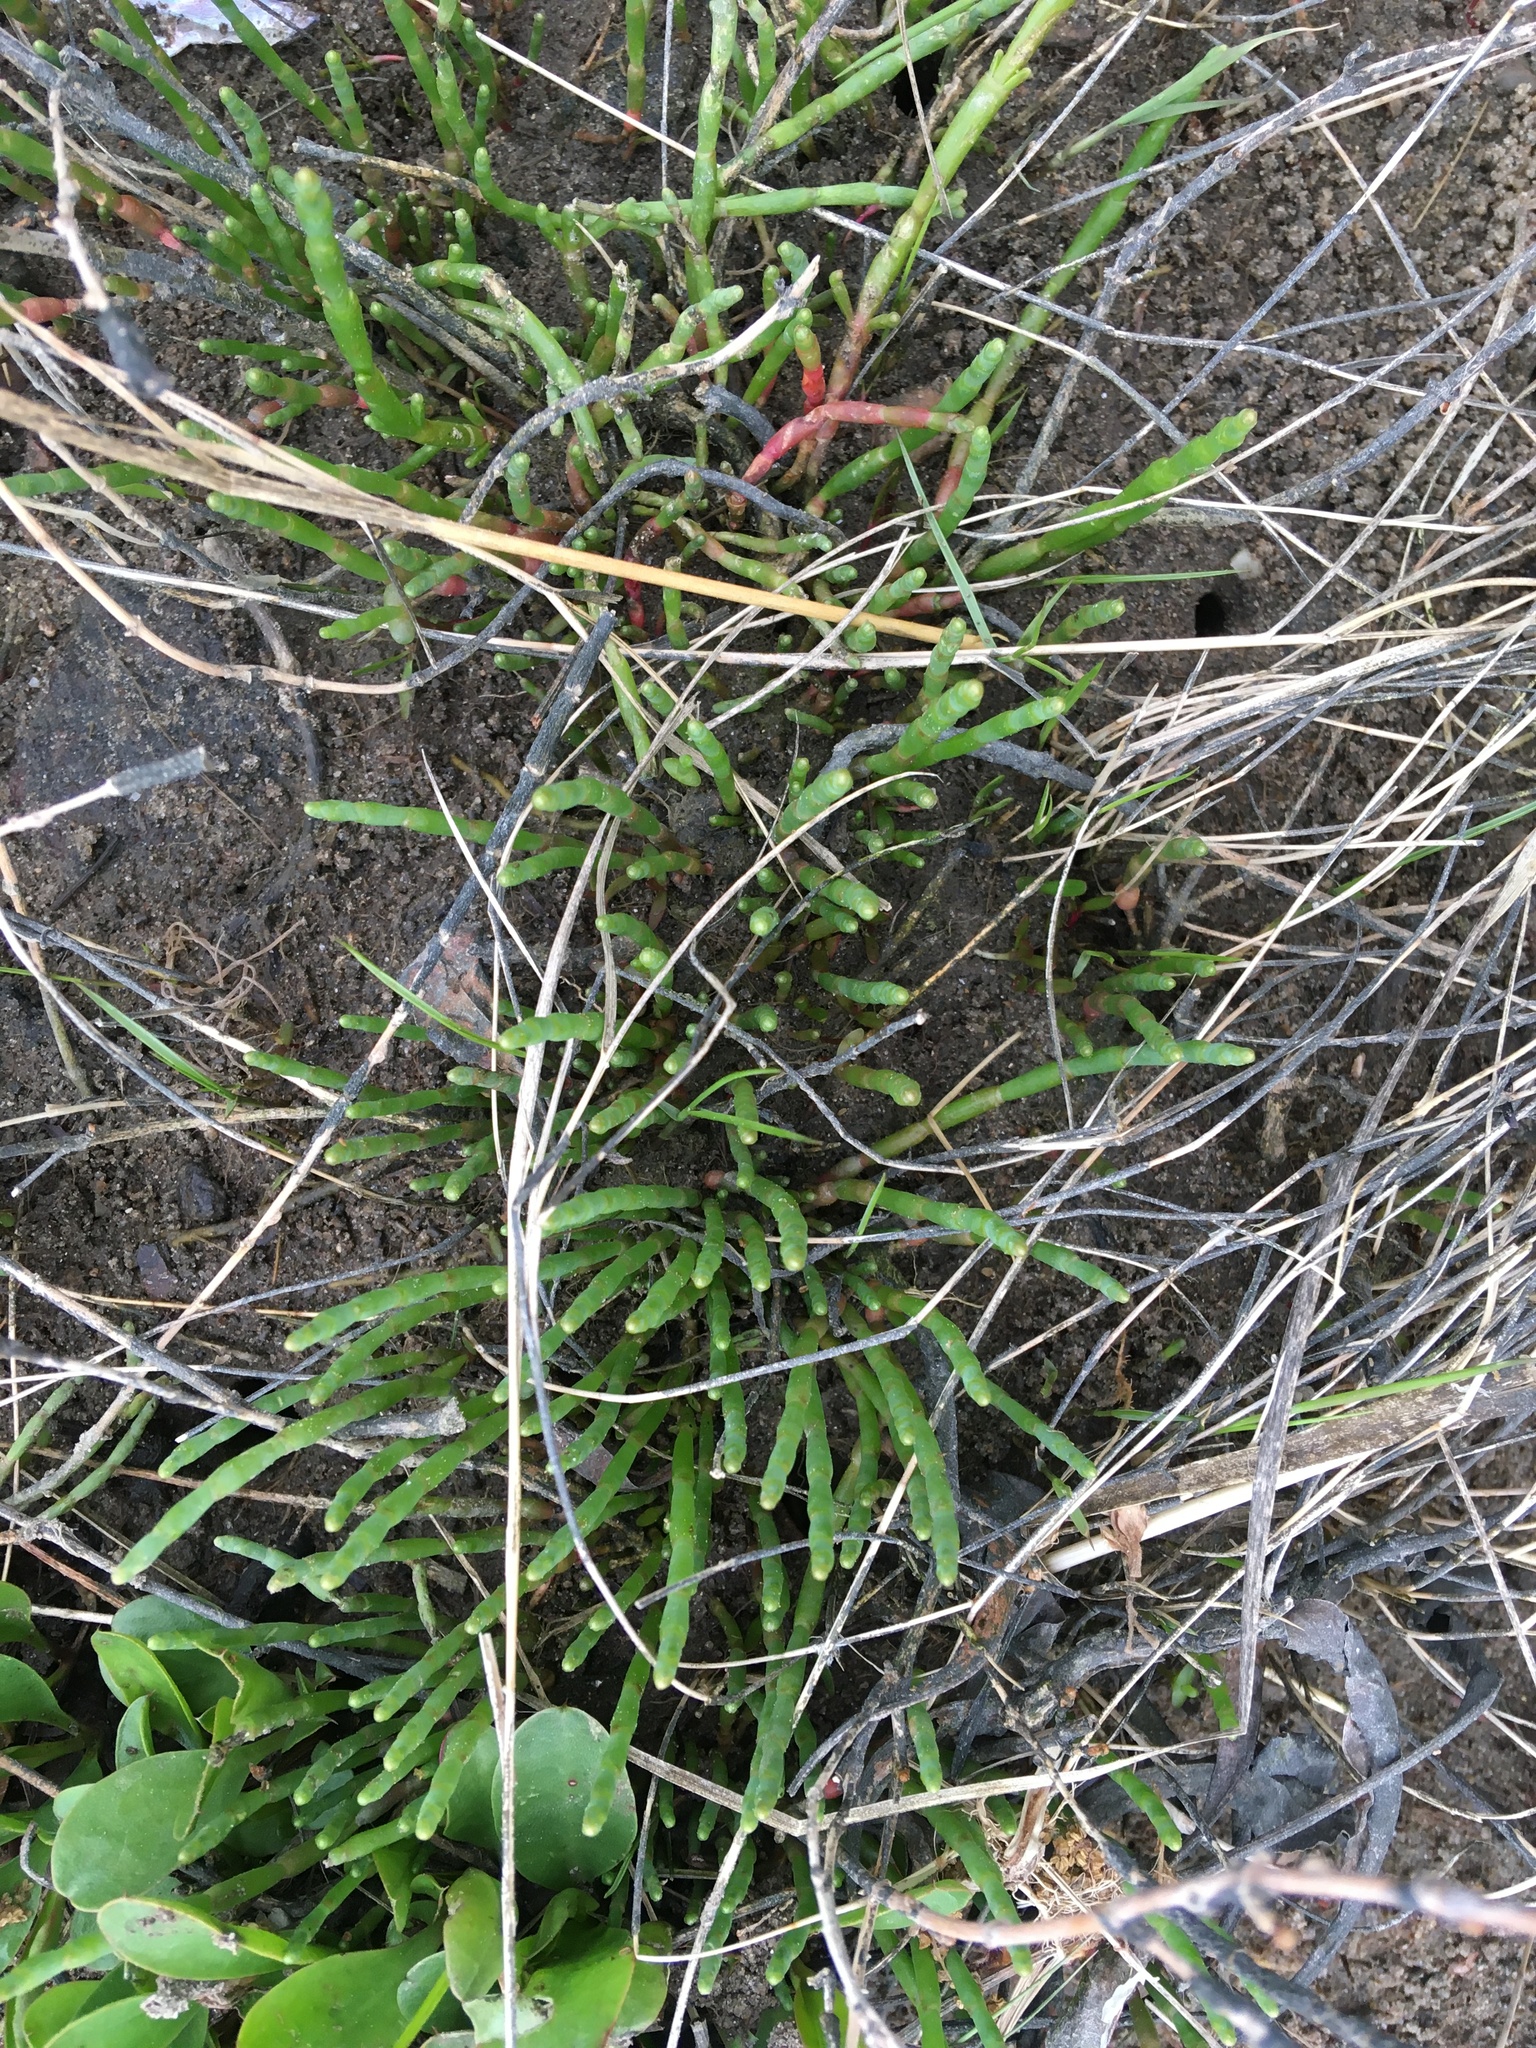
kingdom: Plantae
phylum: Tracheophyta
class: Magnoliopsida
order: Caryophyllales
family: Amaranthaceae
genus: Salicornia
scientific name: Salicornia virginica
